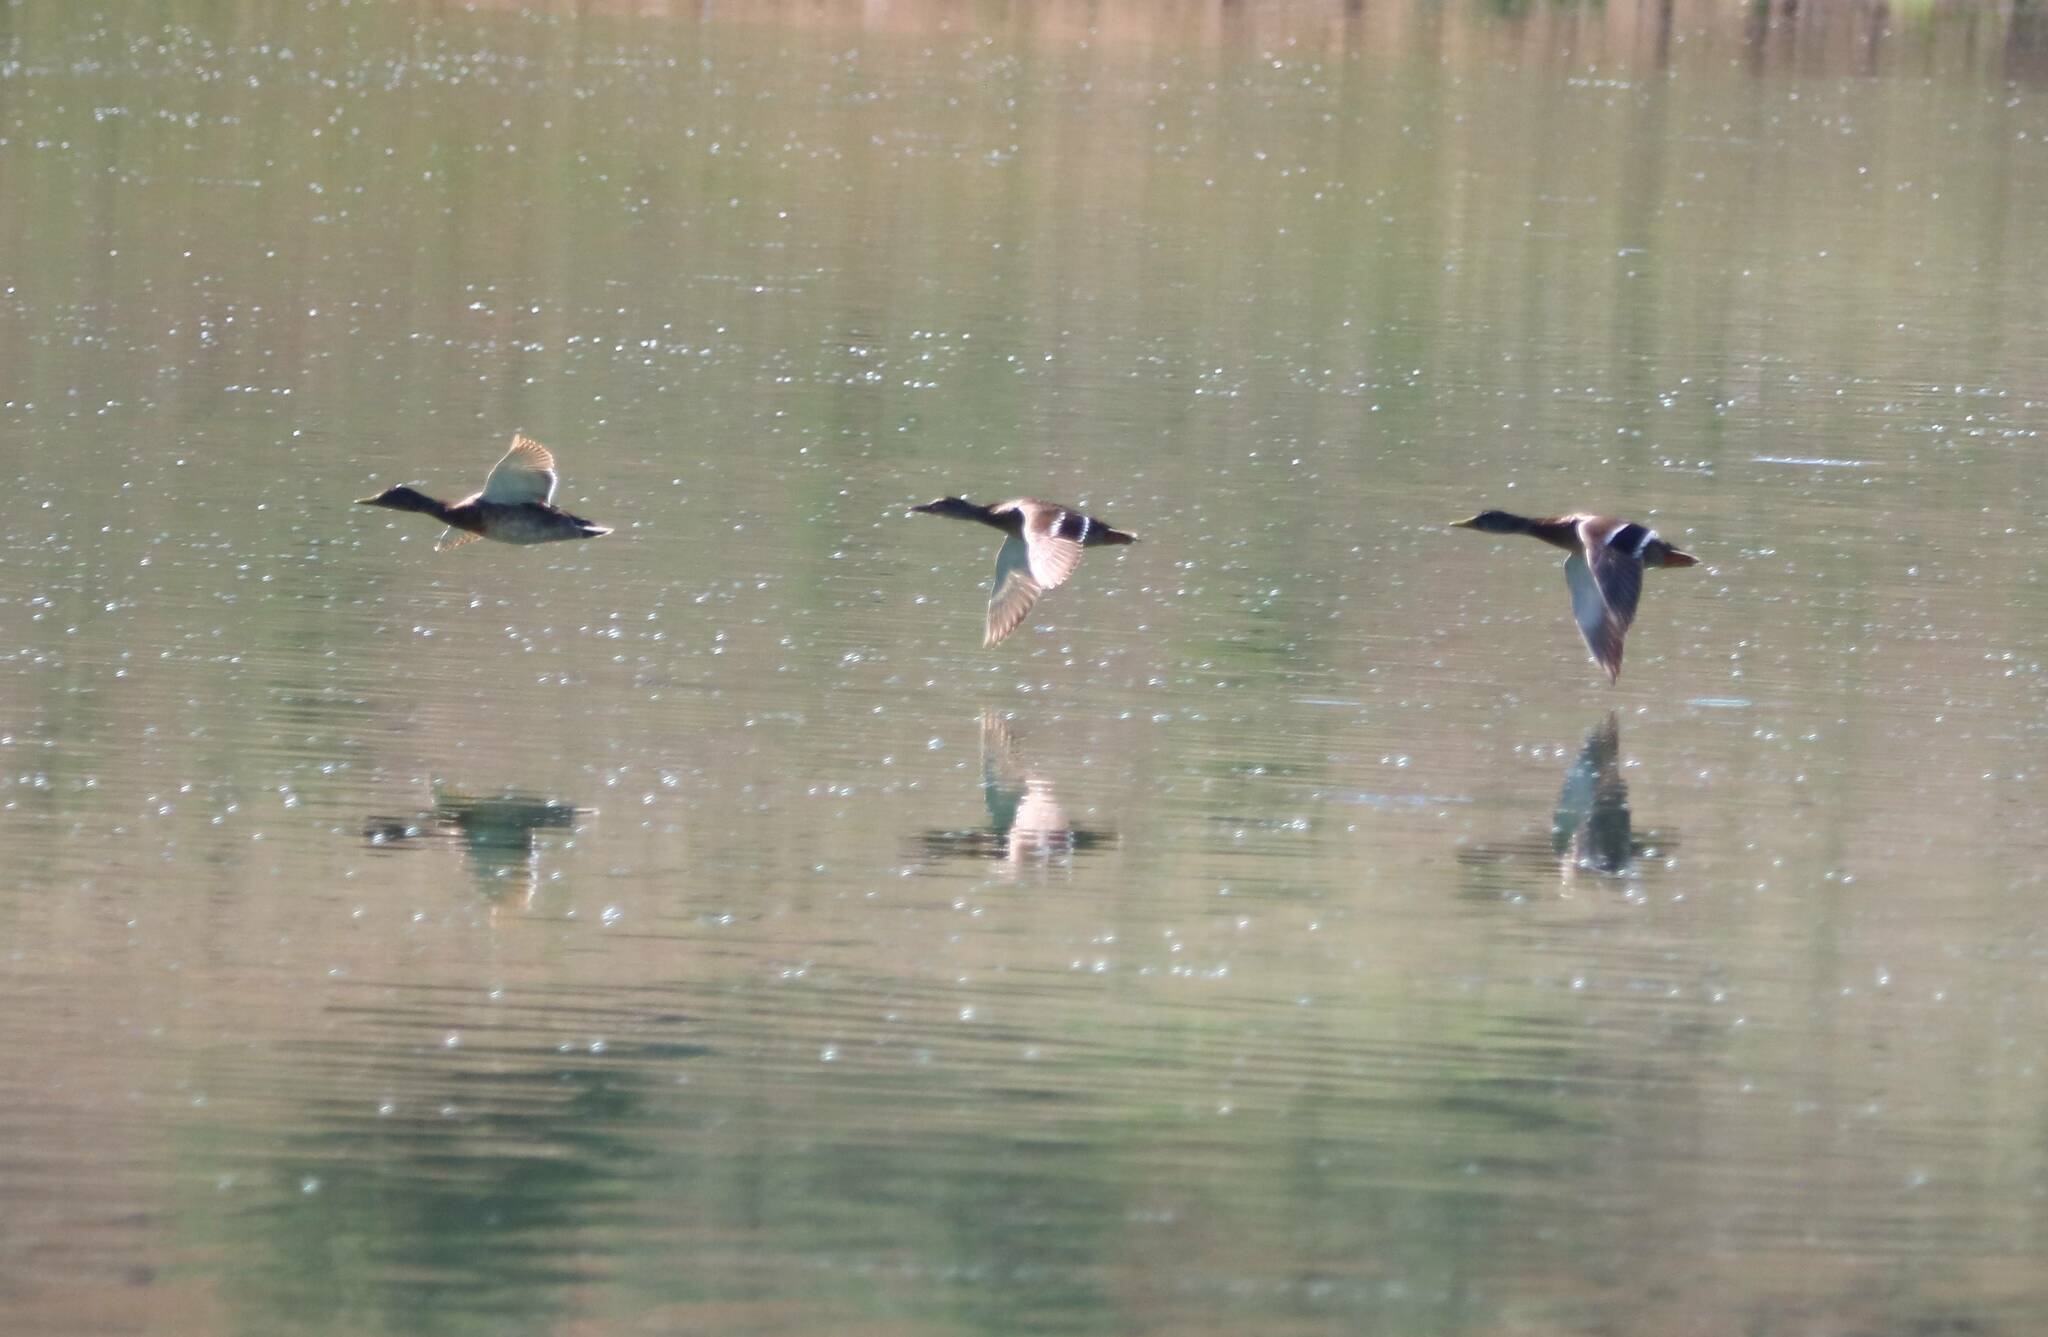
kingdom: Animalia
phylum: Chordata
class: Aves
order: Anseriformes
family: Anatidae
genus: Anas
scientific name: Anas platyrhynchos
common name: Mallard
